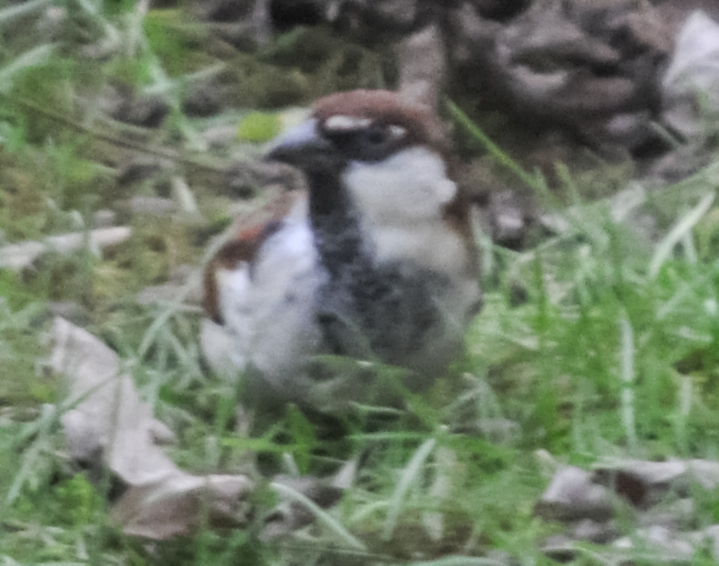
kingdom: Animalia
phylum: Chordata
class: Aves
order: Passeriformes
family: Passeridae
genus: Passer
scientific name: Passer italiae
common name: Italian sparrow
